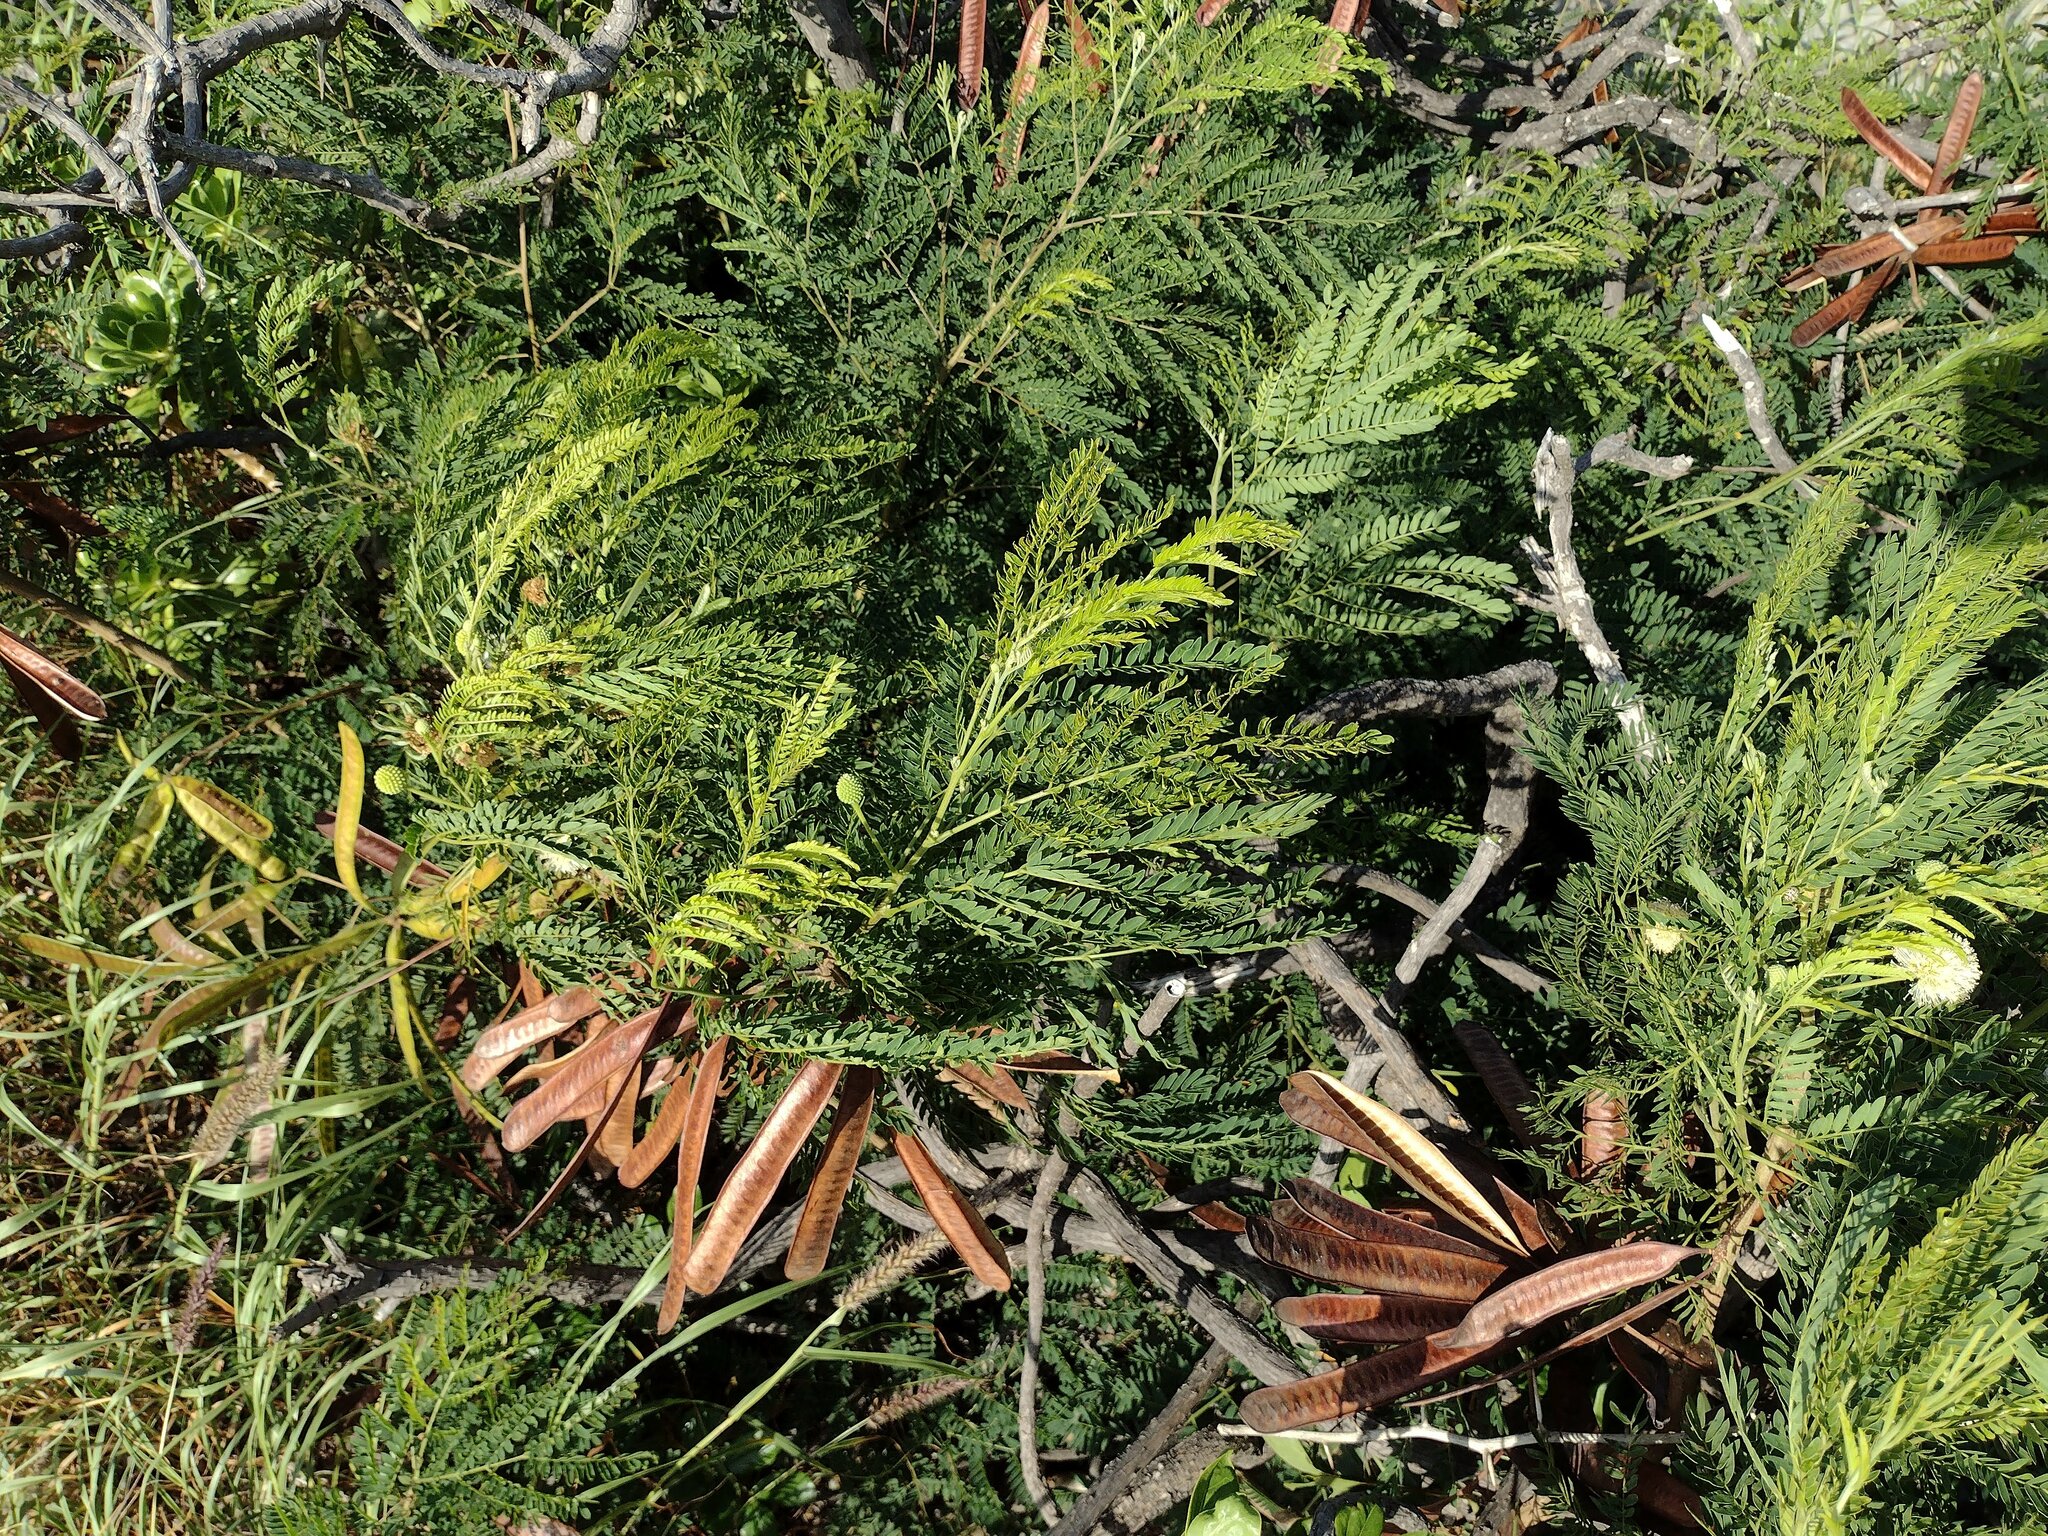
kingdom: Plantae
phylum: Tracheophyta
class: Magnoliopsida
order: Fabales
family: Fabaceae
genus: Leucaena
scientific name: Leucaena leucocephala
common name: White leadtree
